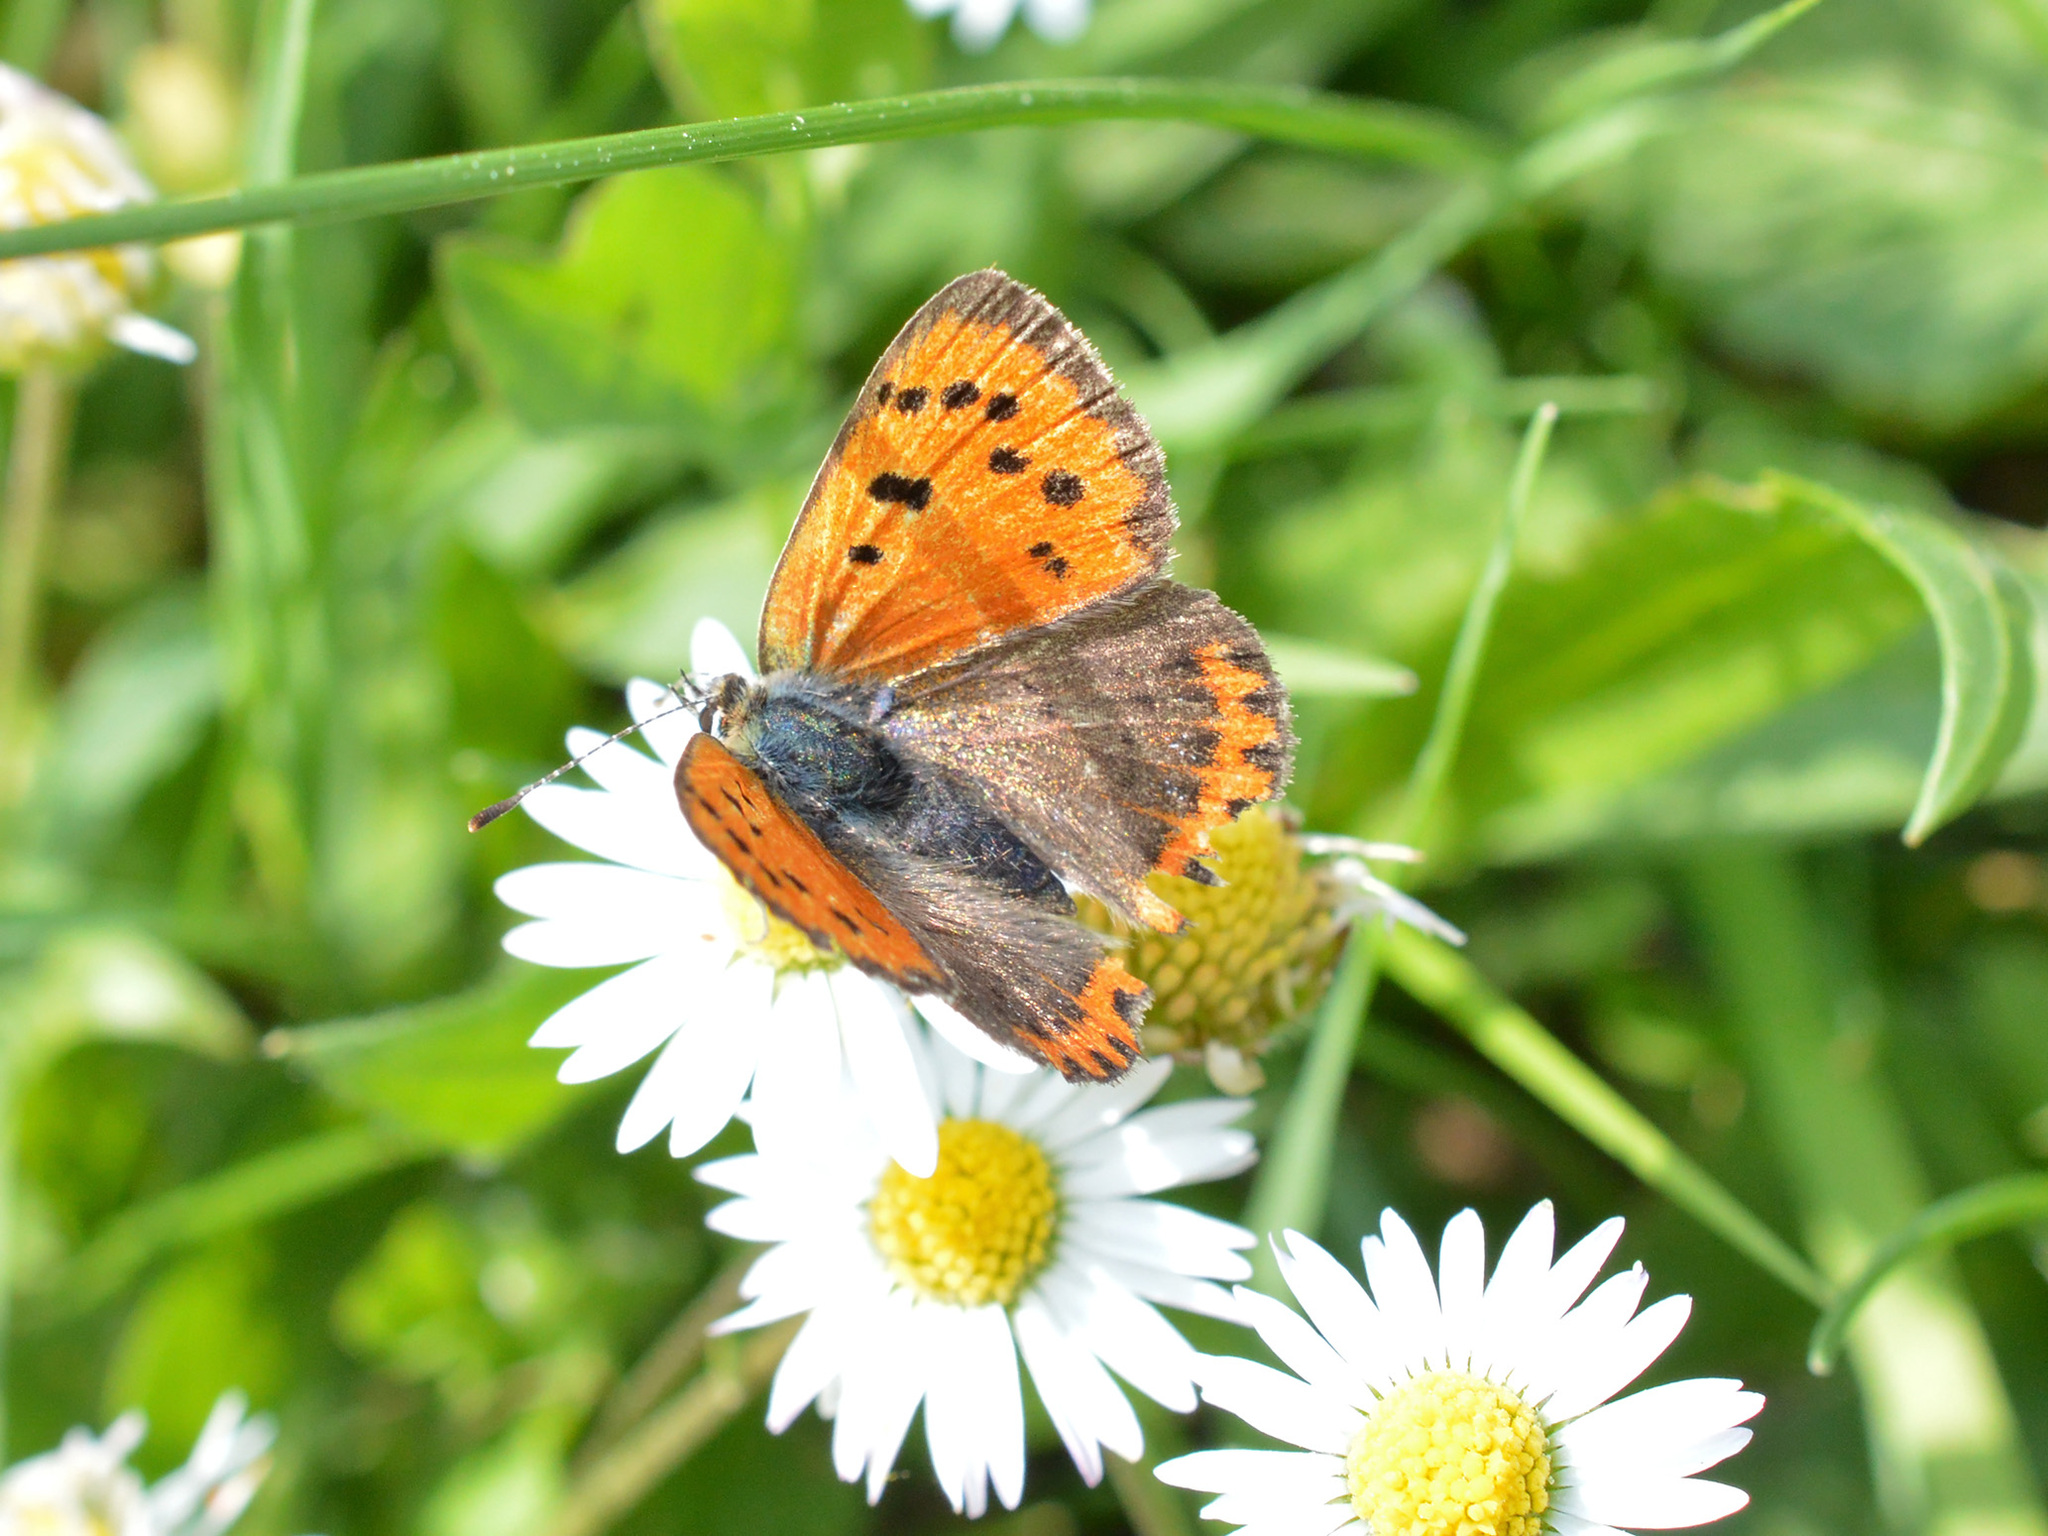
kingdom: Animalia
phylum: Arthropoda
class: Insecta
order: Lepidoptera
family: Lycaenidae
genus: Lycaena
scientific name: Lycaena phlaeas
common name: Small copper
